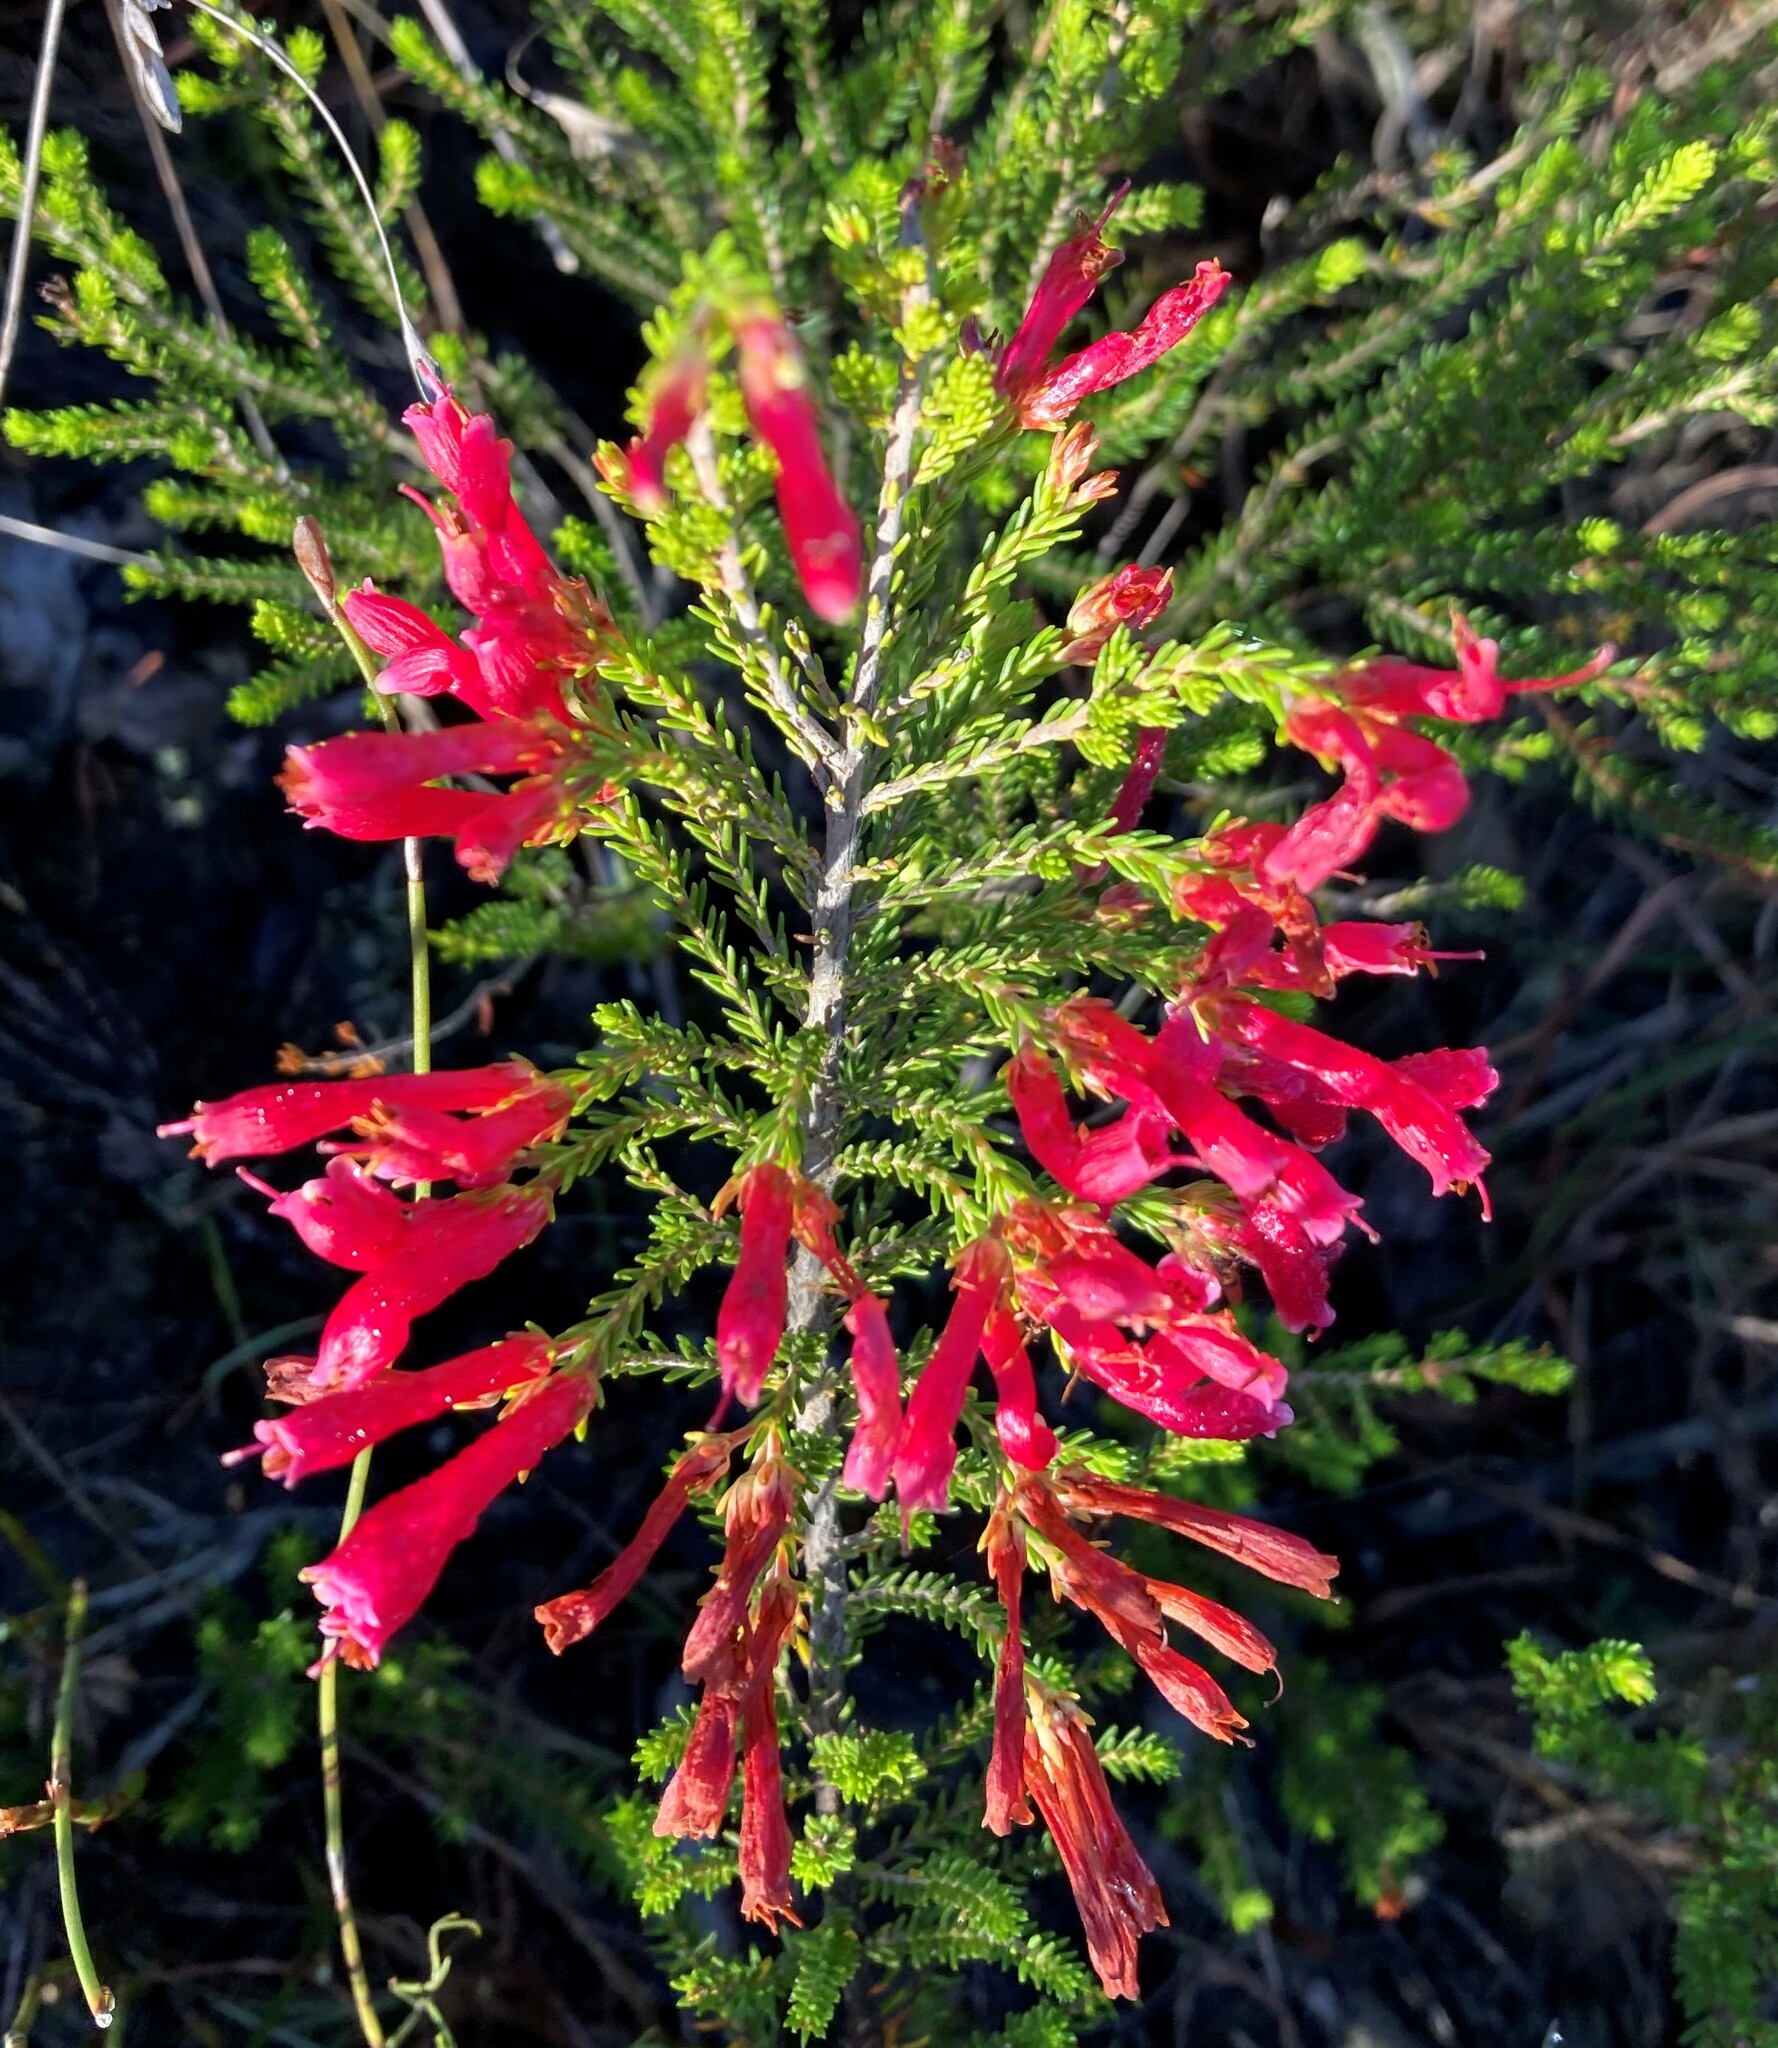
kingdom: Plantae
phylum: Tracheophyta
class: Magnoliopsida
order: Ericales
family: Ericaceae
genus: Erica
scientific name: Erica cruenta
